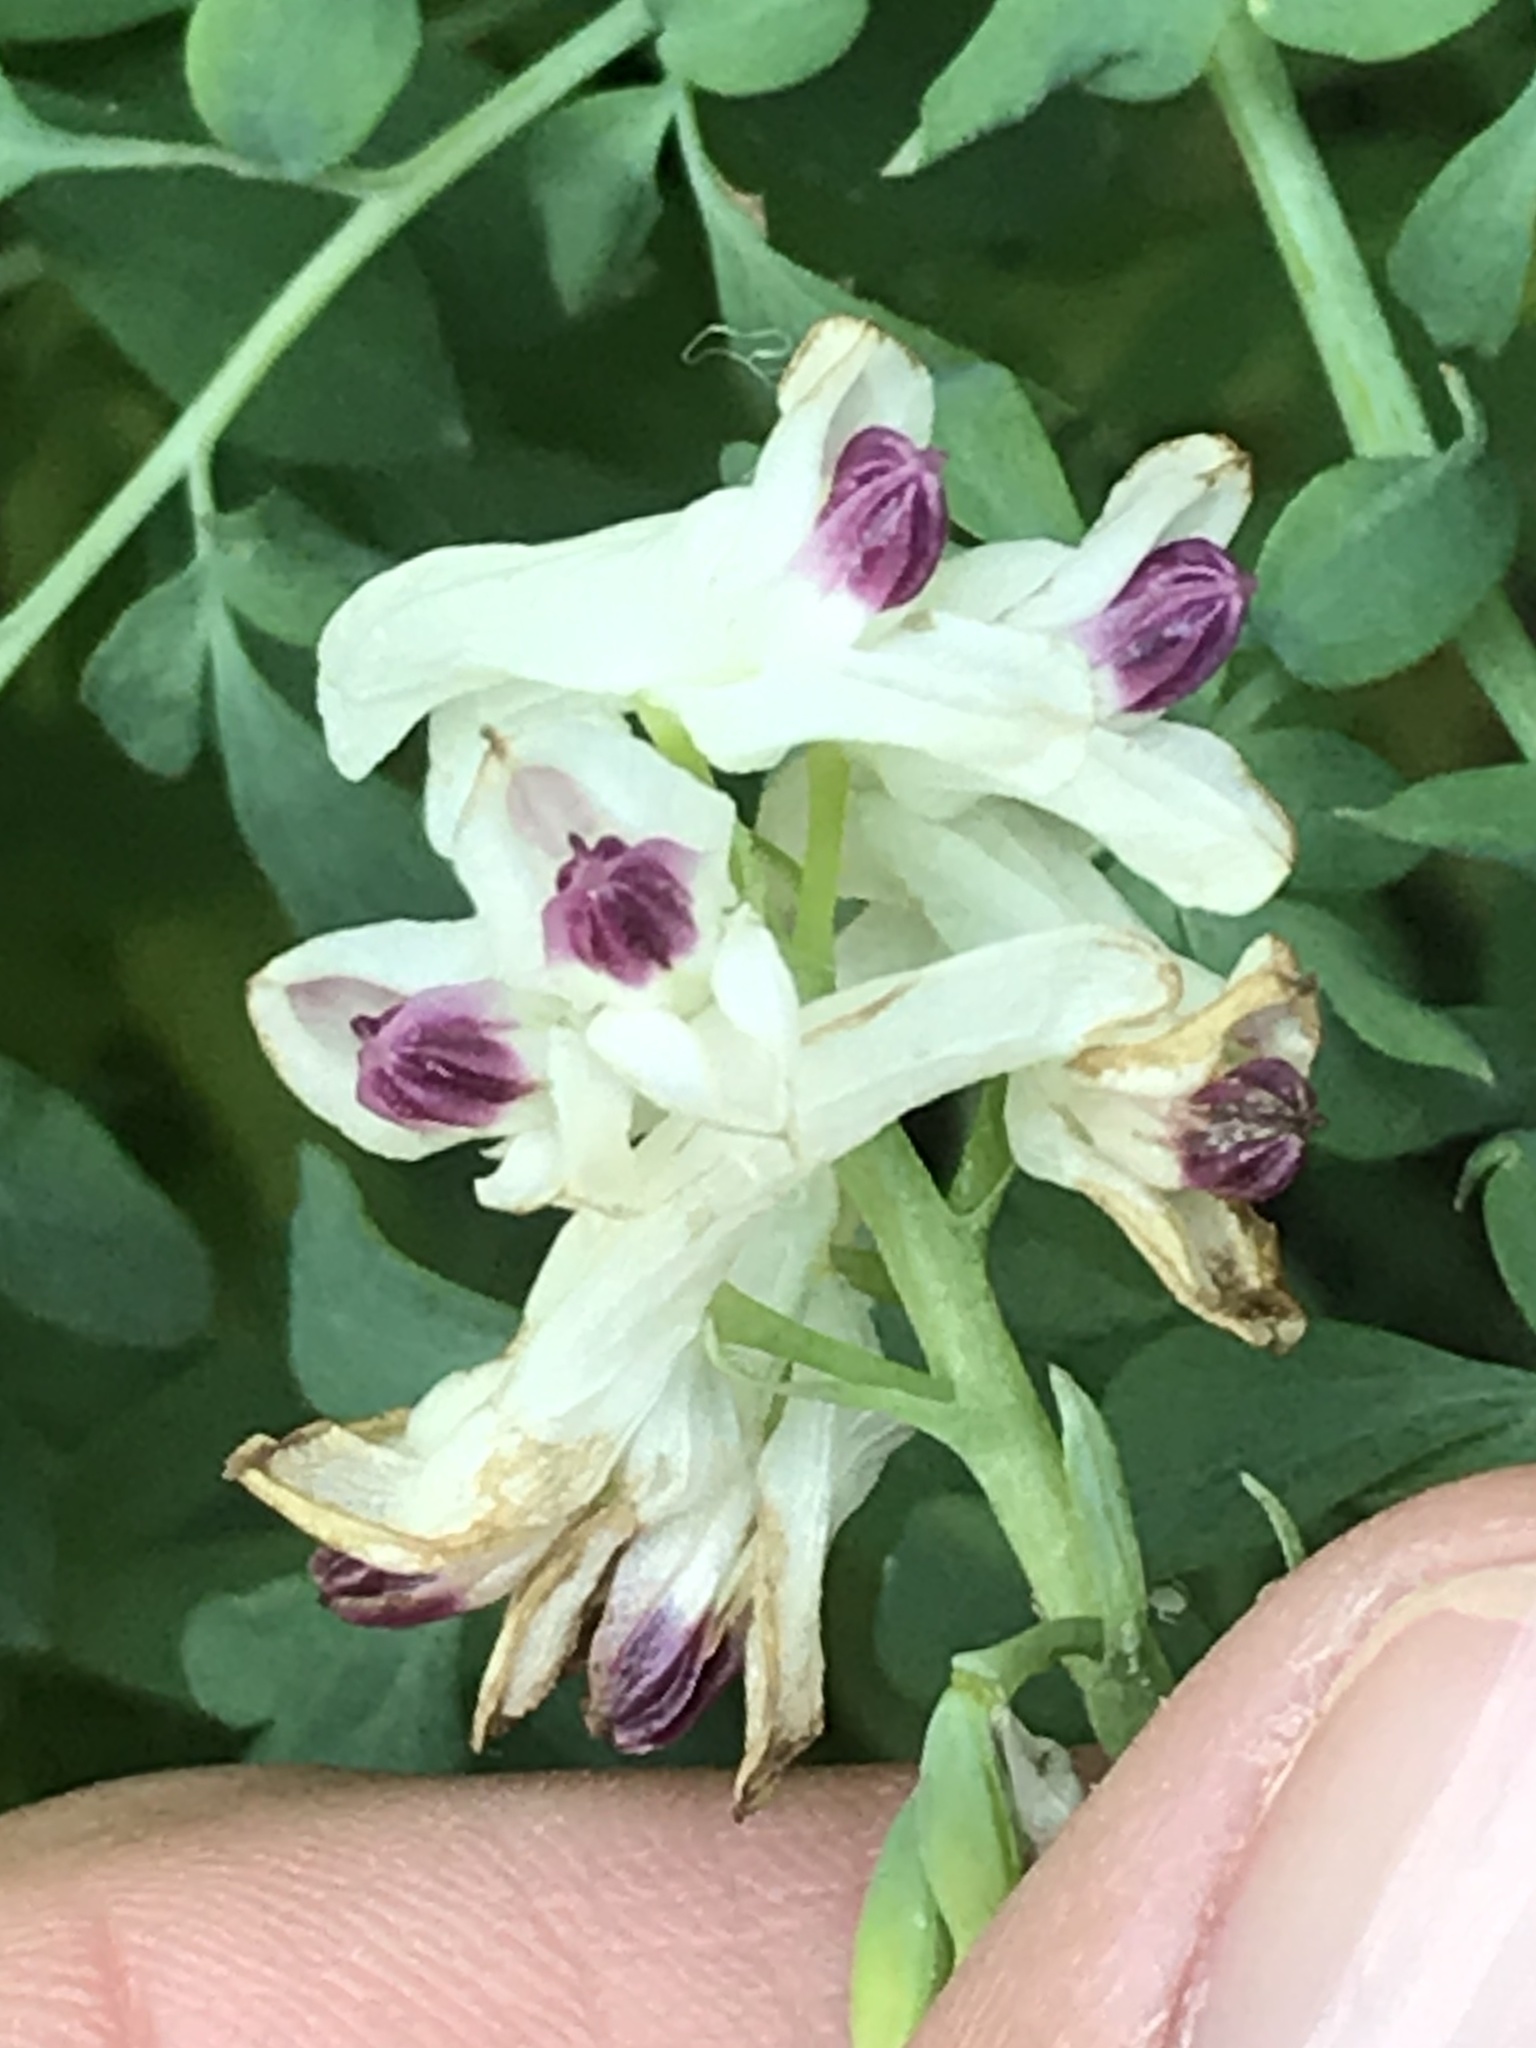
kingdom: Plantae
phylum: Tracheophyta
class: Magnoliopsida
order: Ranunculales
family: Papaveraceae
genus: Corydalis
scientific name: Corydalis caseana
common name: Fitweed
